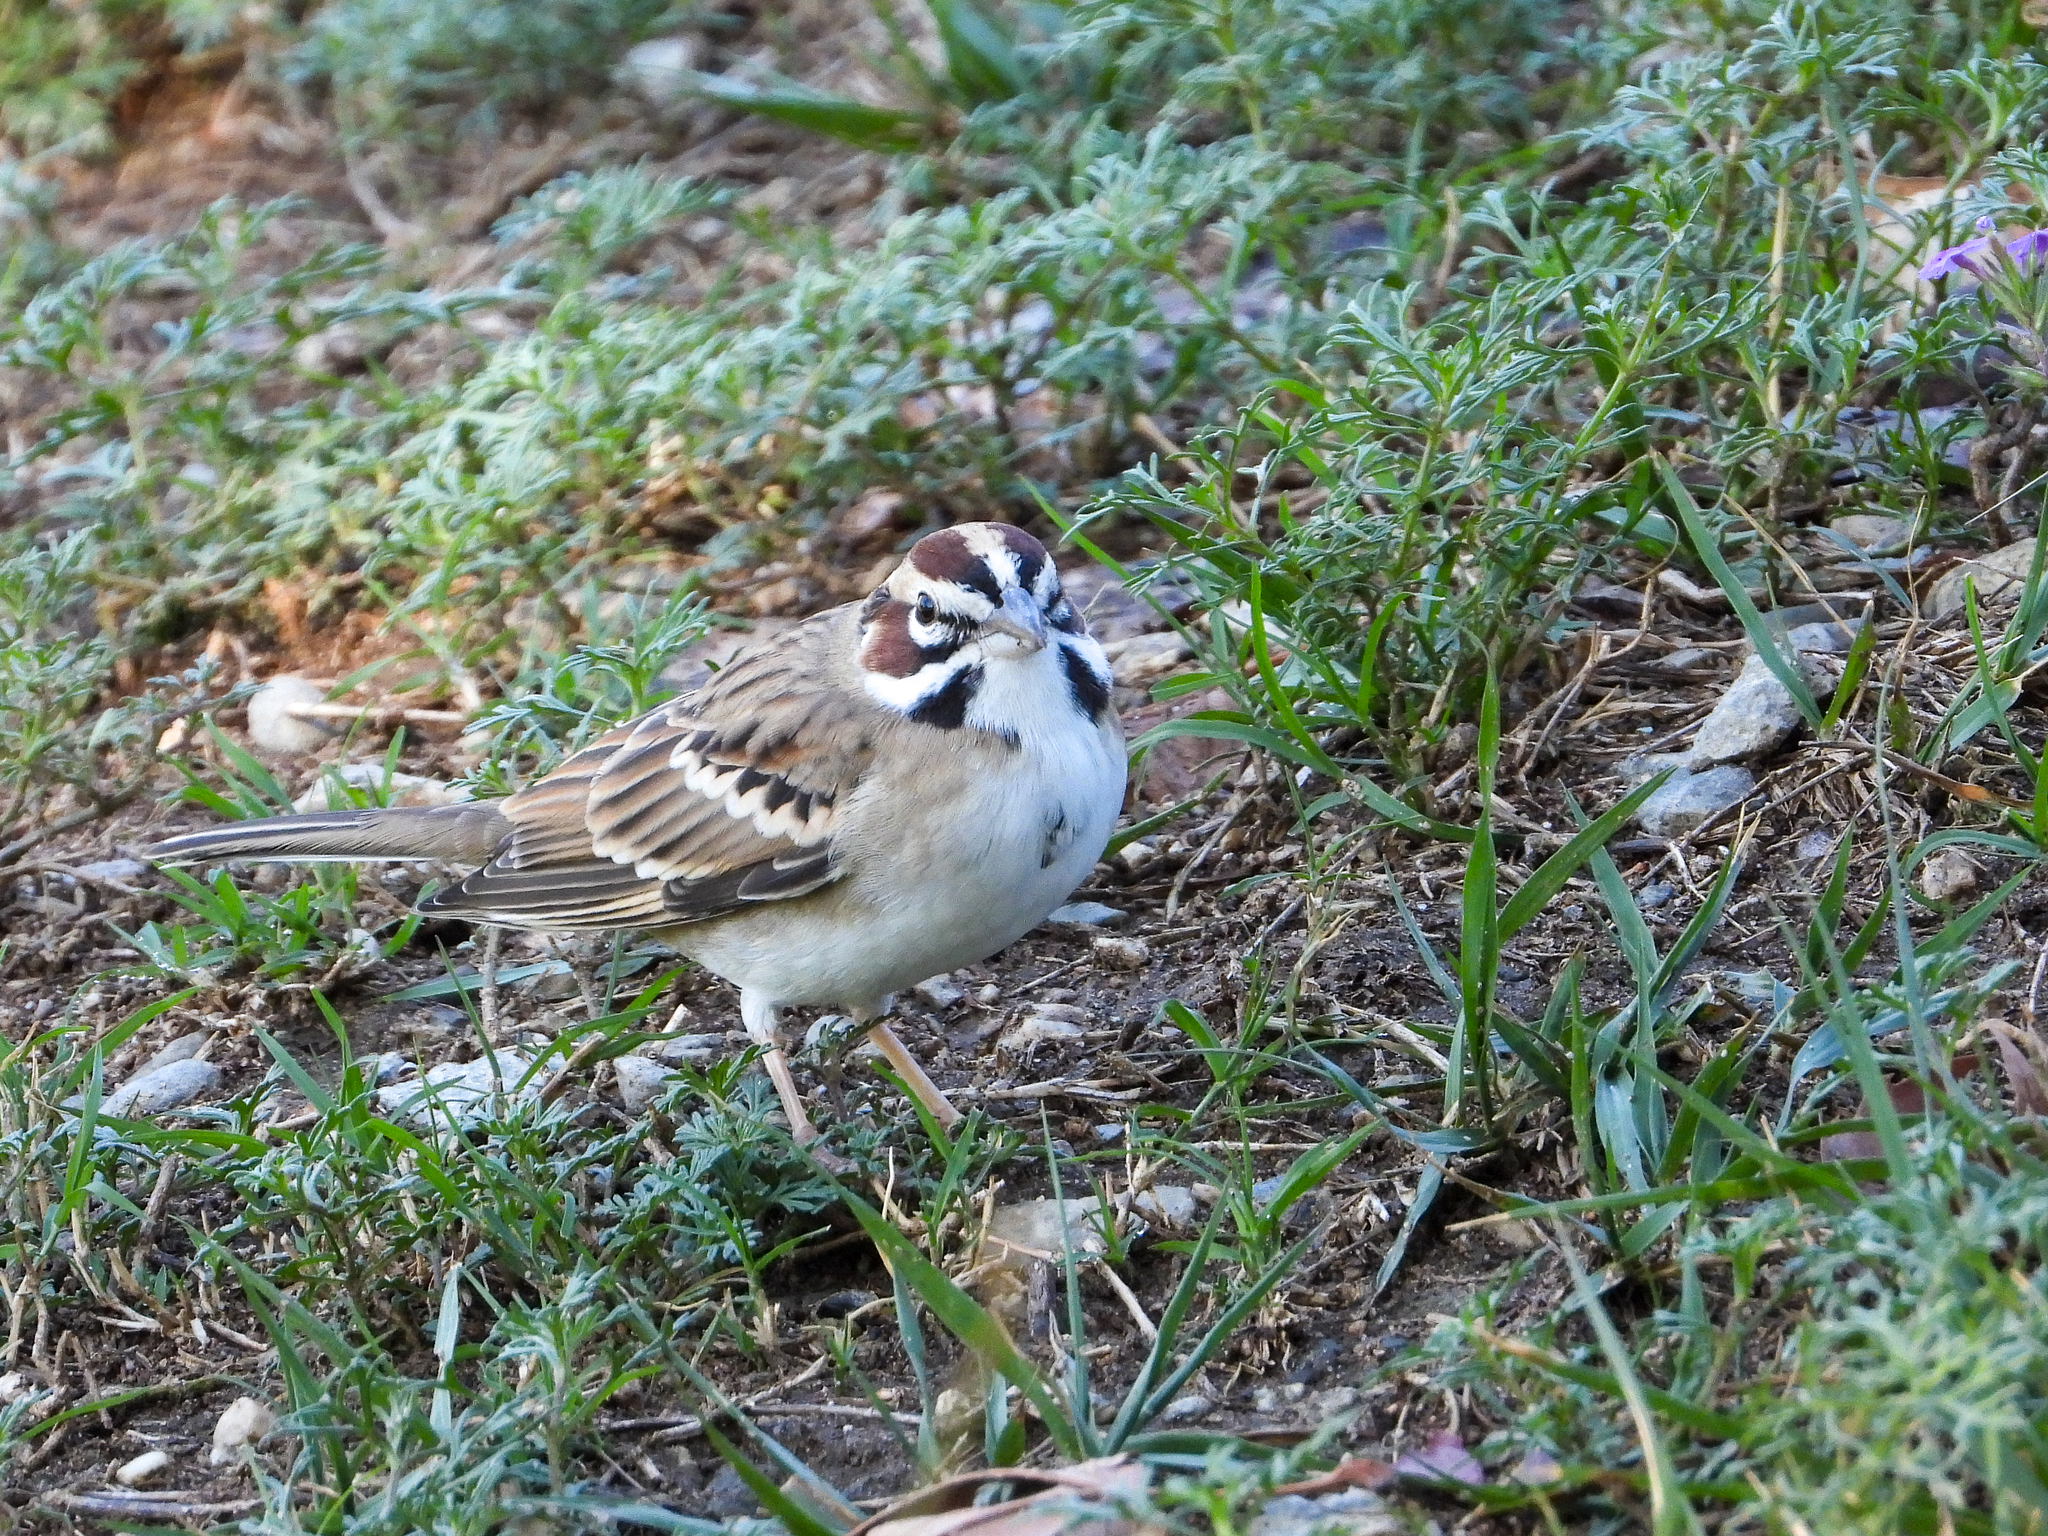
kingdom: Animalia
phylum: Chordata
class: Aves
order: Passeriformes
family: Passerellidae
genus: Chondestes
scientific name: Chondestes grammacus
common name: Lark sparrow
